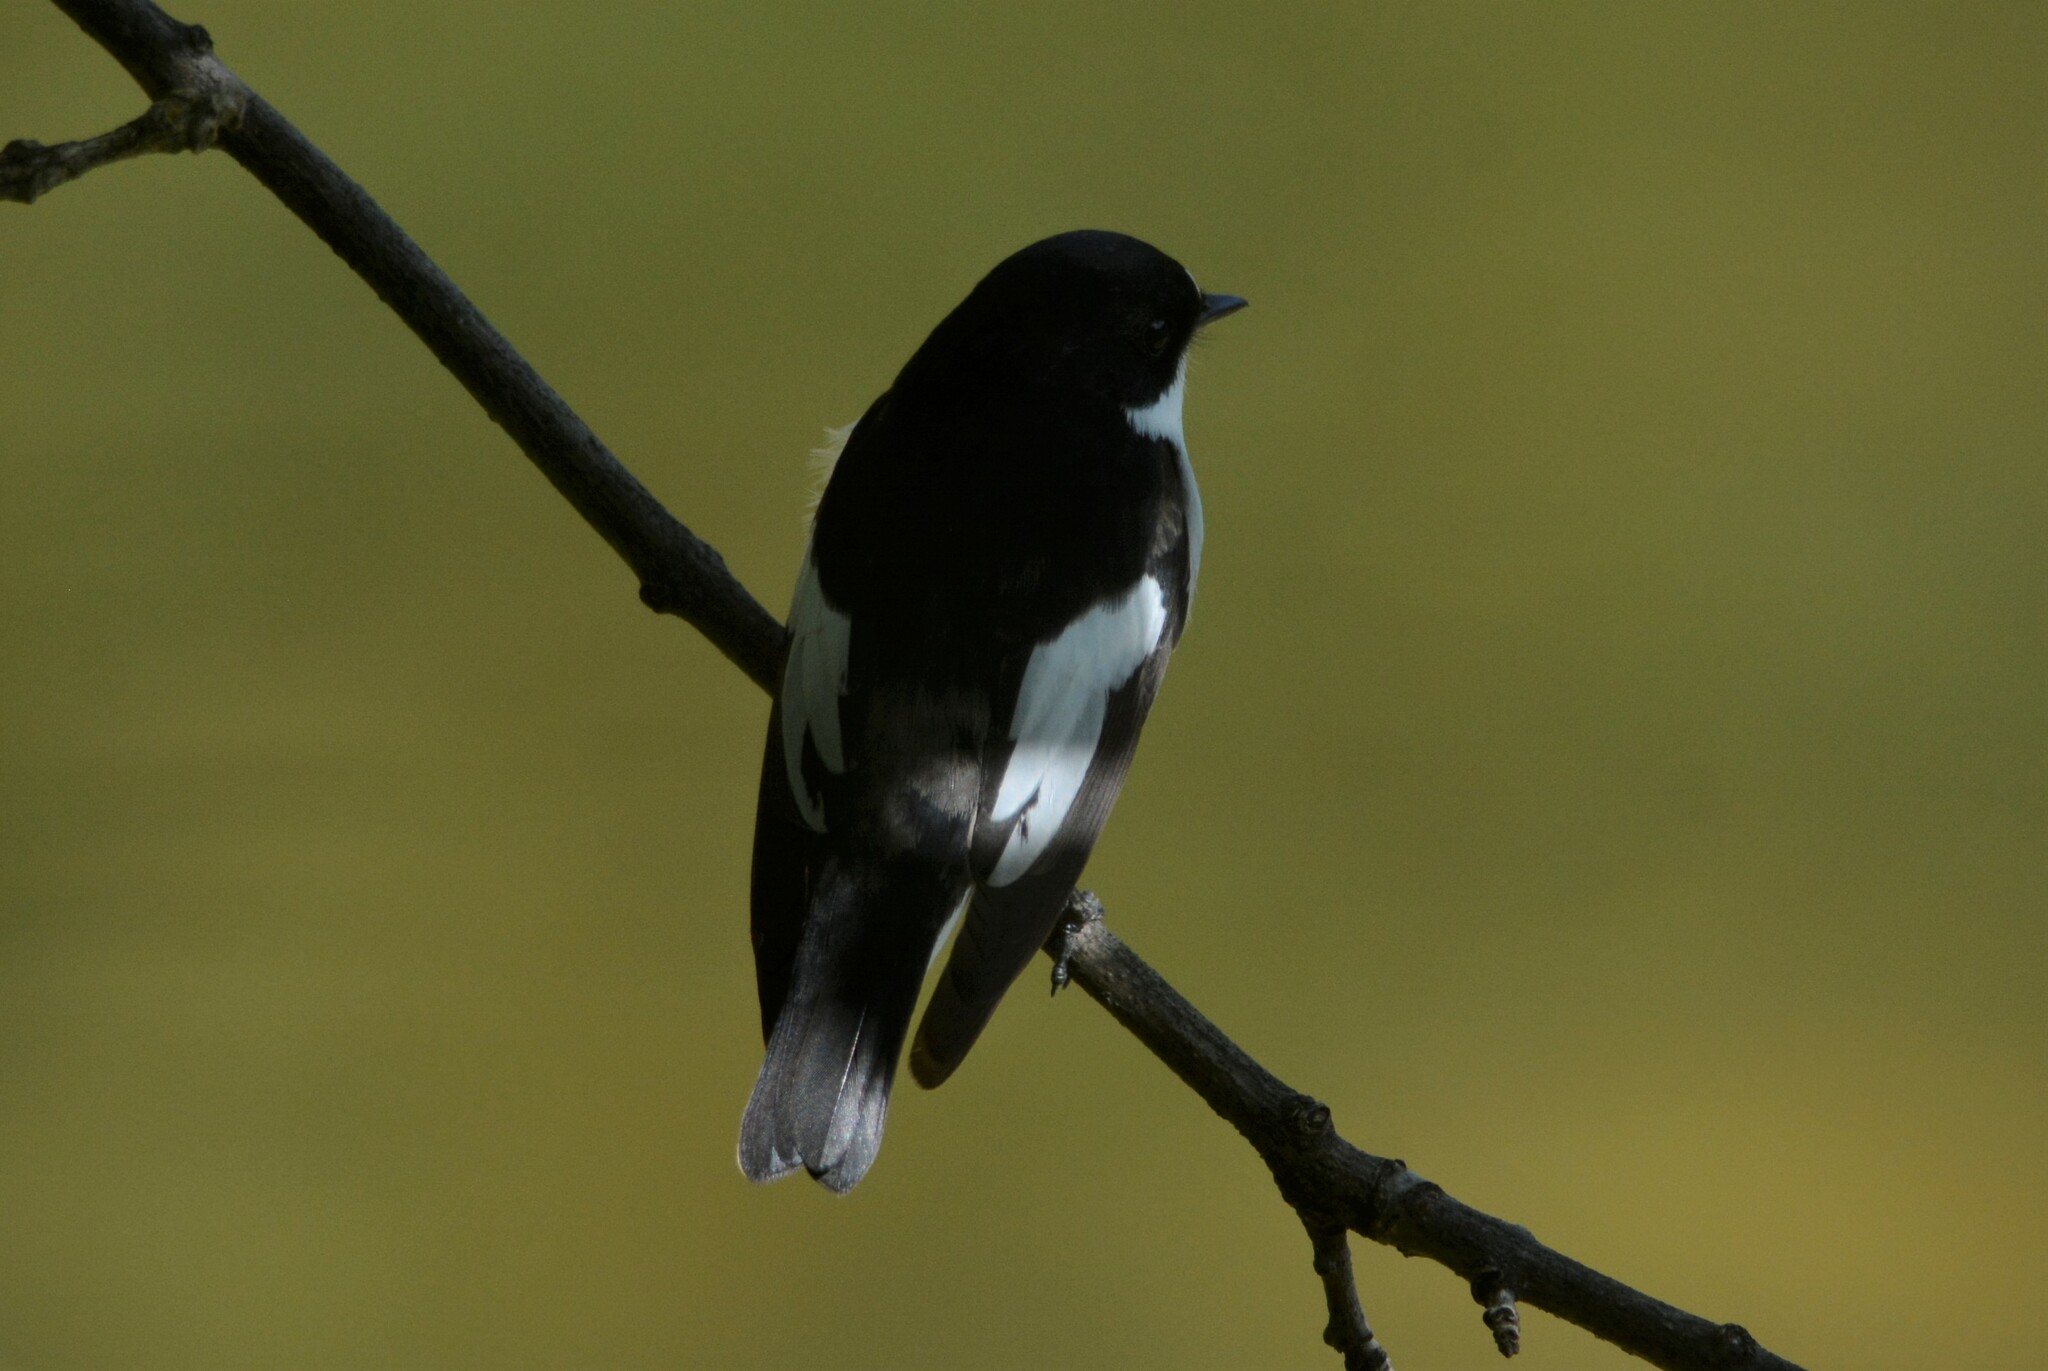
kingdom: Animalia
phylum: Chordata
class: Aves
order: Passeriformes
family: Muscicapidae
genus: Ficedula
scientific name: Ficedula hypoleuca
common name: European pied flycatcher
